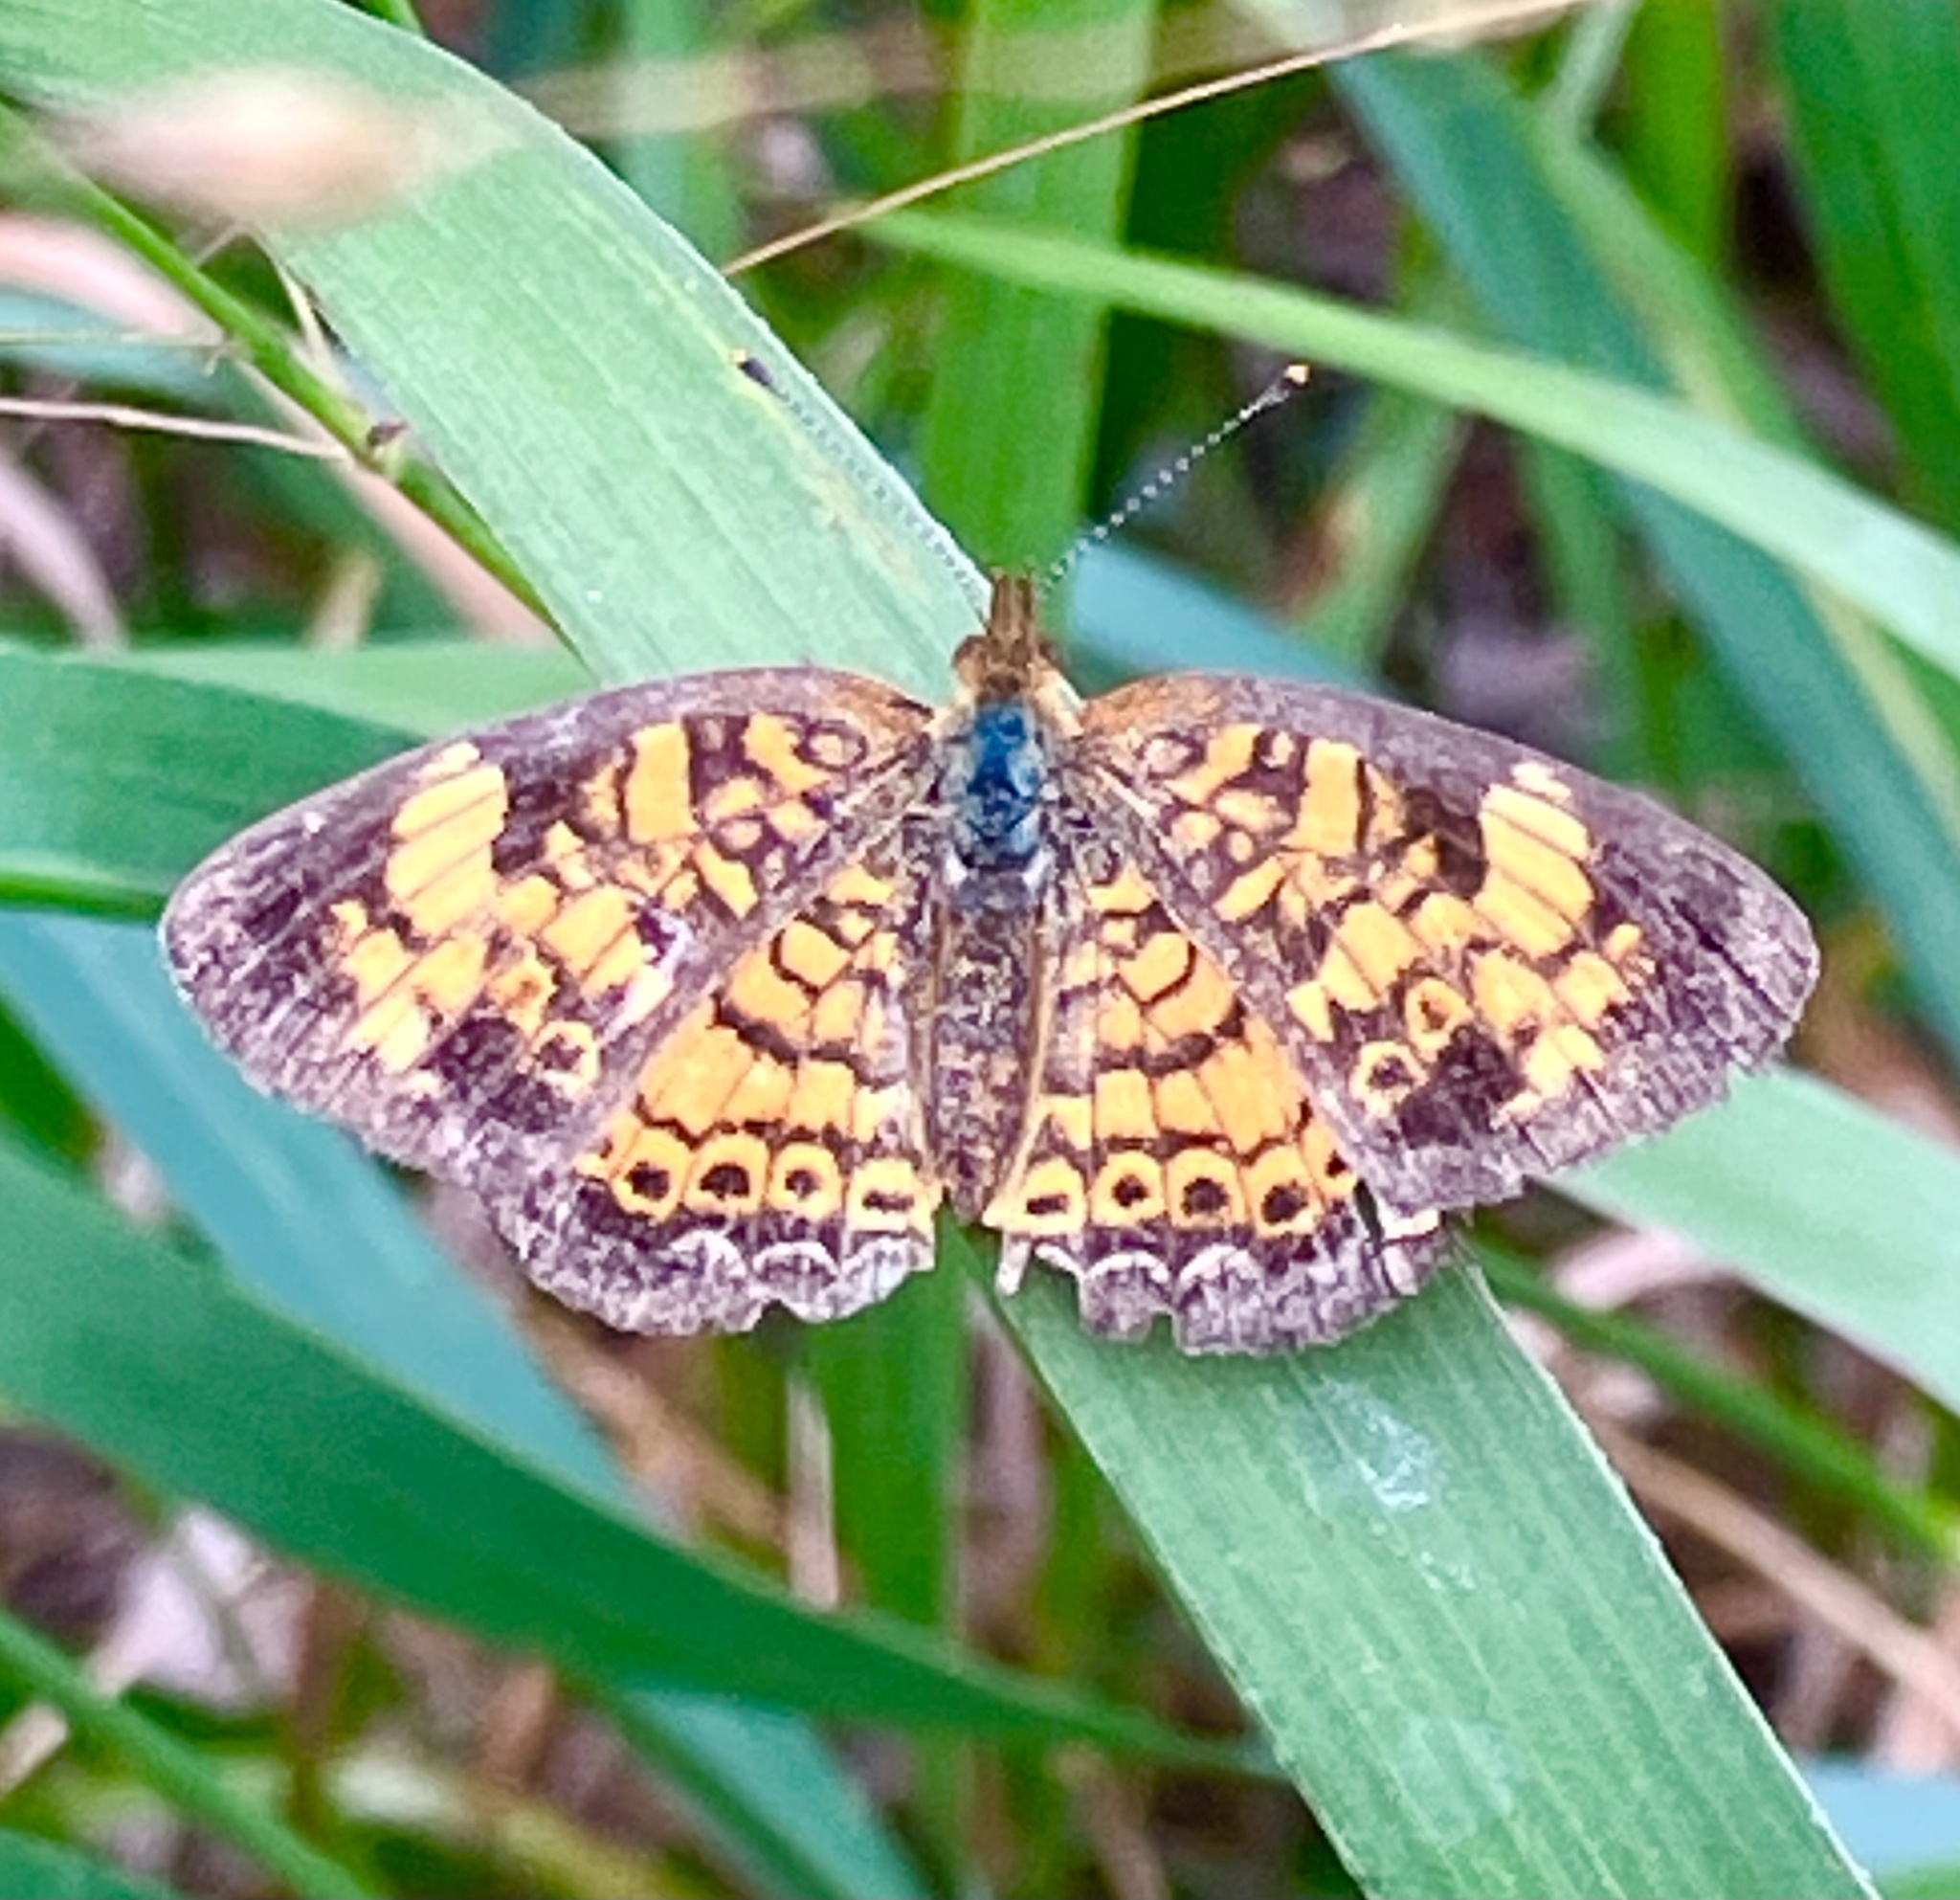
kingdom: Animalia
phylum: Arthropoda
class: Insecta
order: Lepidoptera
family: Nymphalidae
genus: Phyciodes
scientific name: Phyciodes tharos
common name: Pearl crescent
